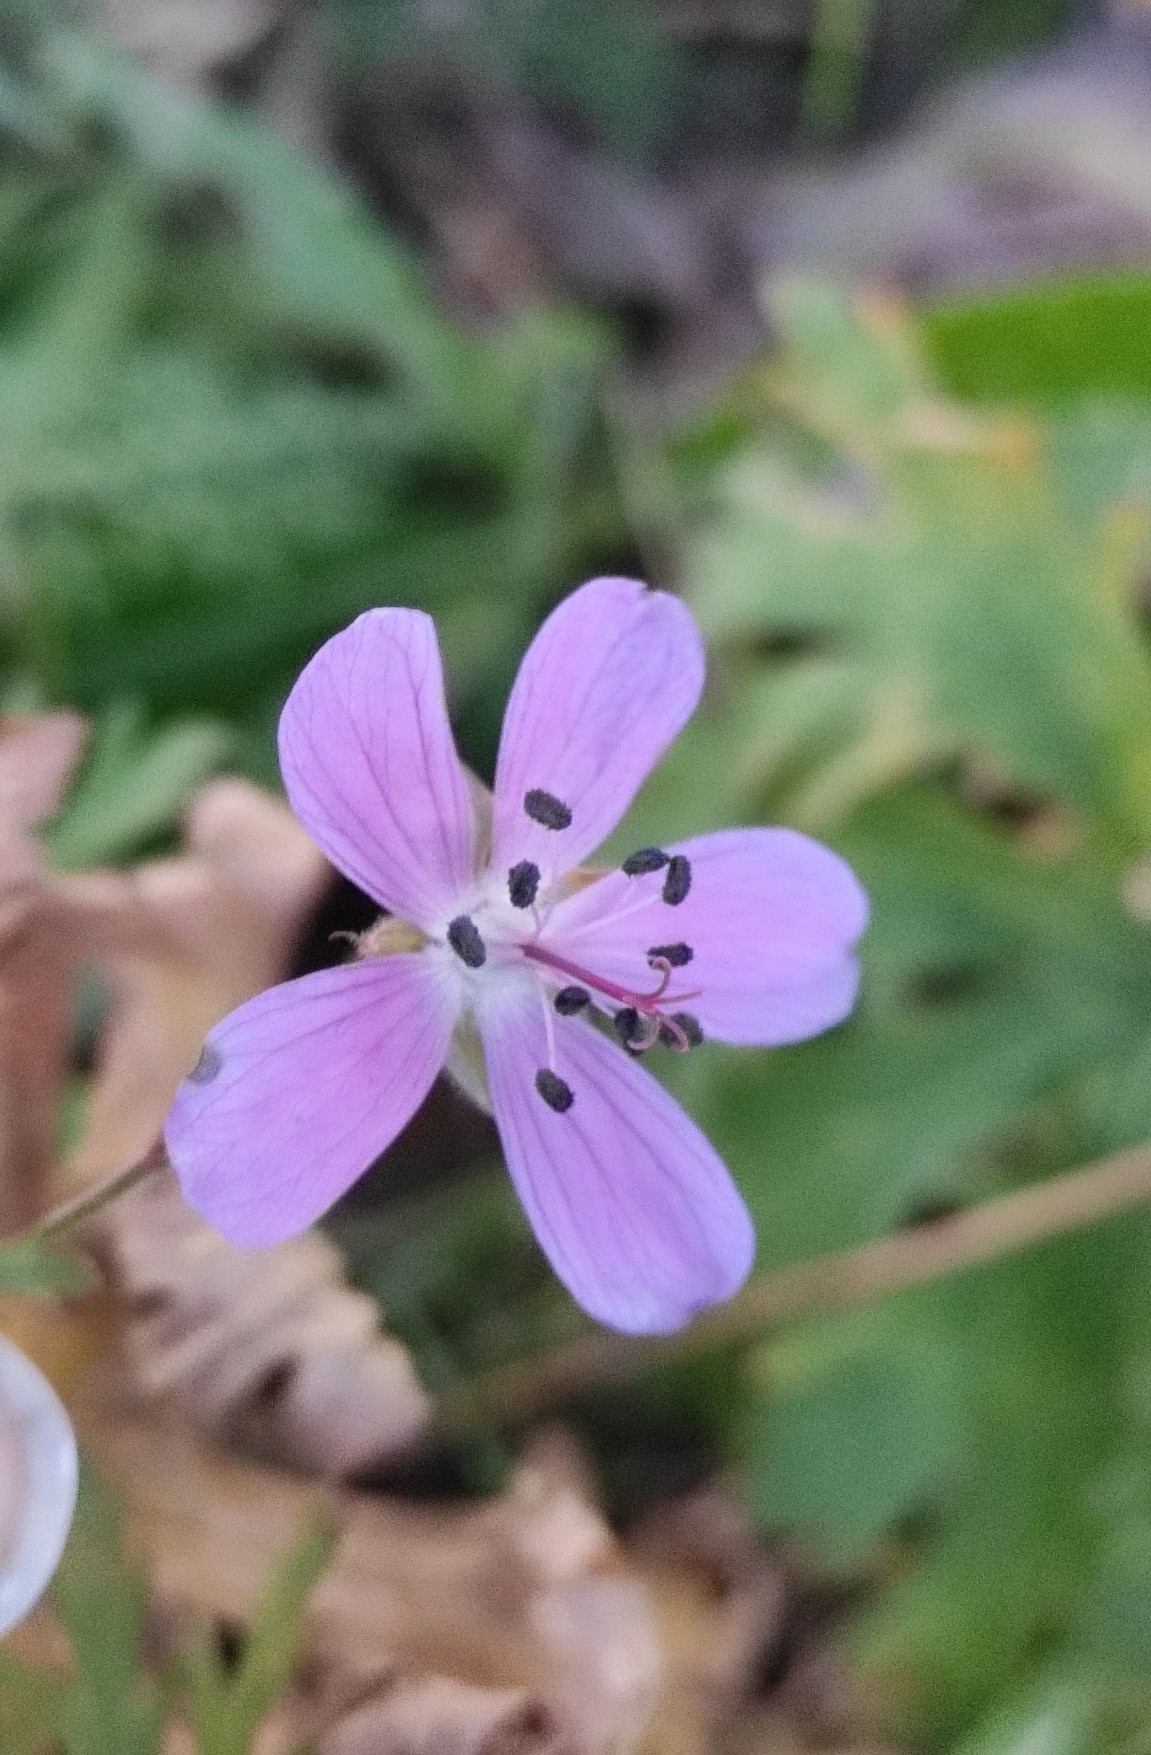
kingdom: Plantae
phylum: Tracheophyta
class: Magnoliopsida
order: Geraniales
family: Geraniaceae
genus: Geranium
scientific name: Geranium pratense
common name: Meadow crane's-bill
